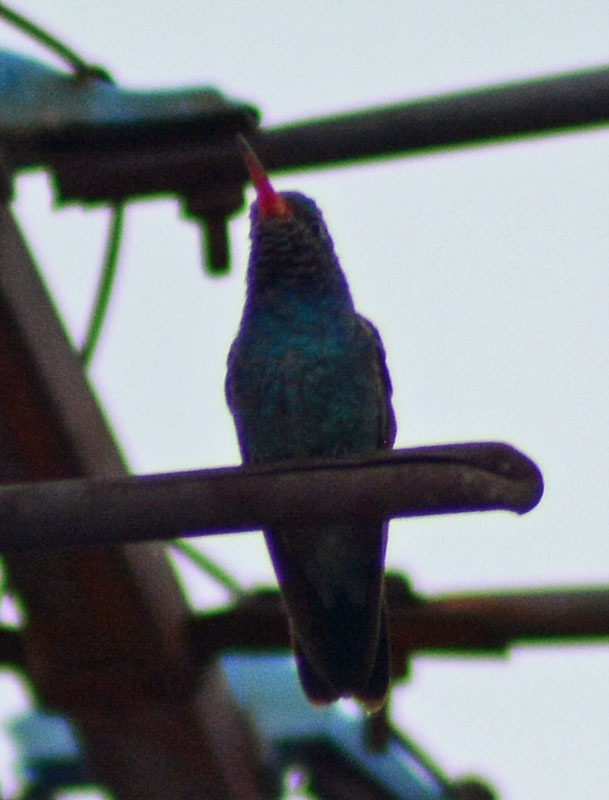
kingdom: Animalia
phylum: Chordata
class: Aves
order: Apodiformes
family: Trochilidae
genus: Cynanthus
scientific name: Cynanthus latirostris
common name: Broad-billed hummingbird
